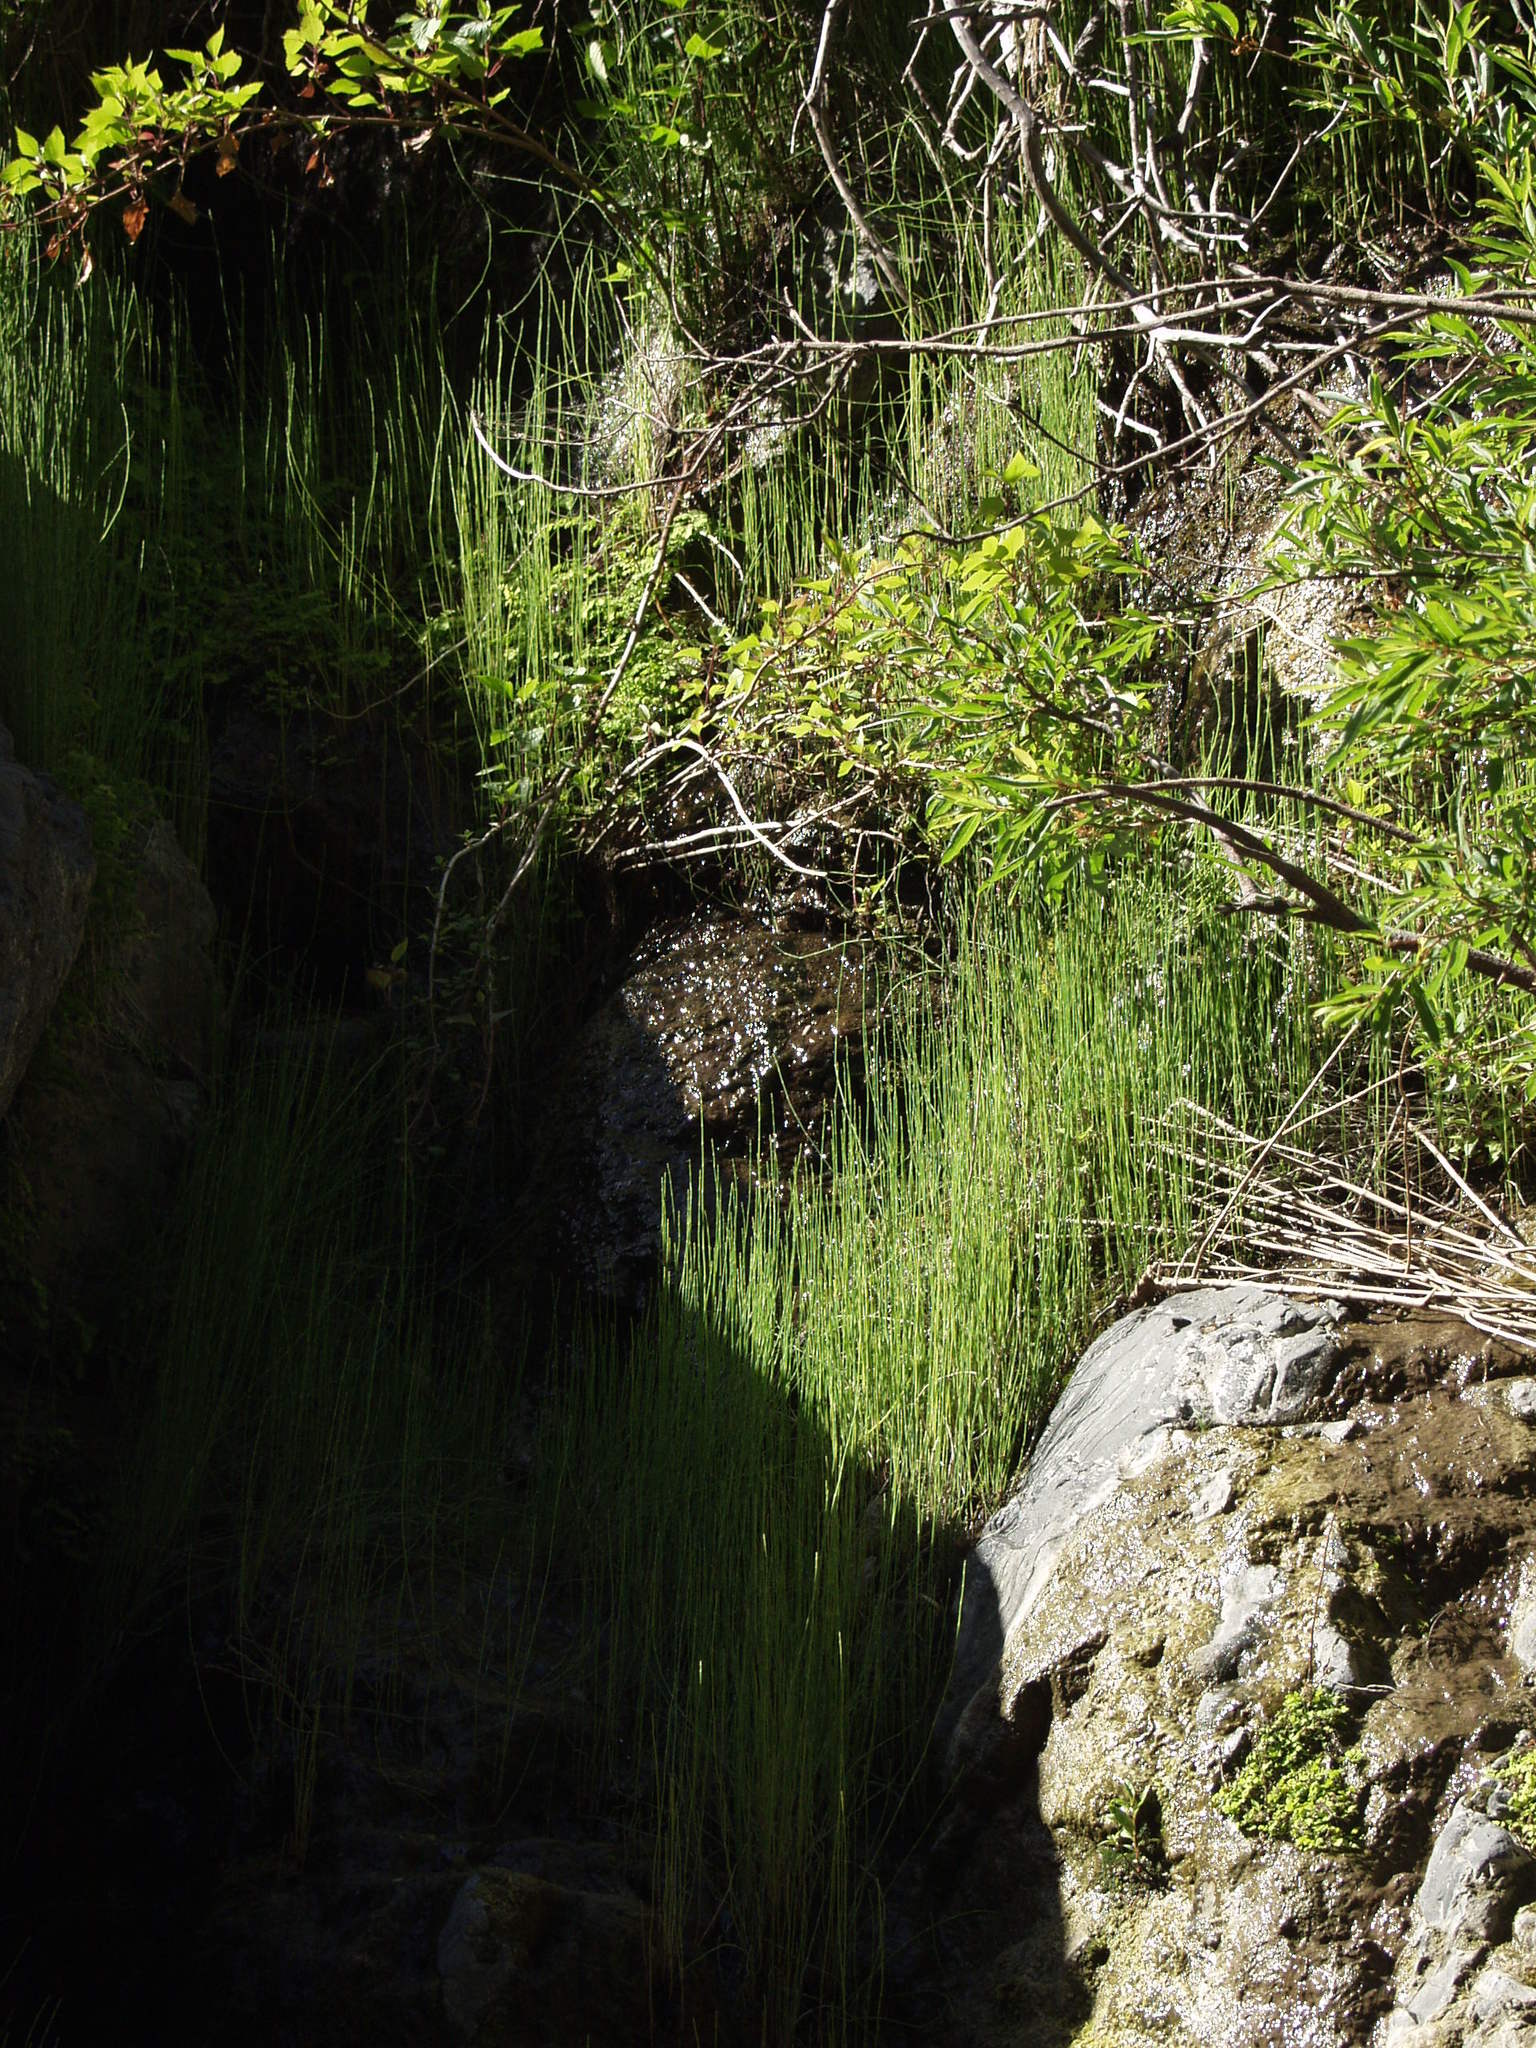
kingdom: Plantae
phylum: Tracheophyta
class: Polypodiopsida
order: Equisetales
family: Equisetaceae
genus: Equisetum
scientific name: Equisetum ramosissimum
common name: Branched horsetail
